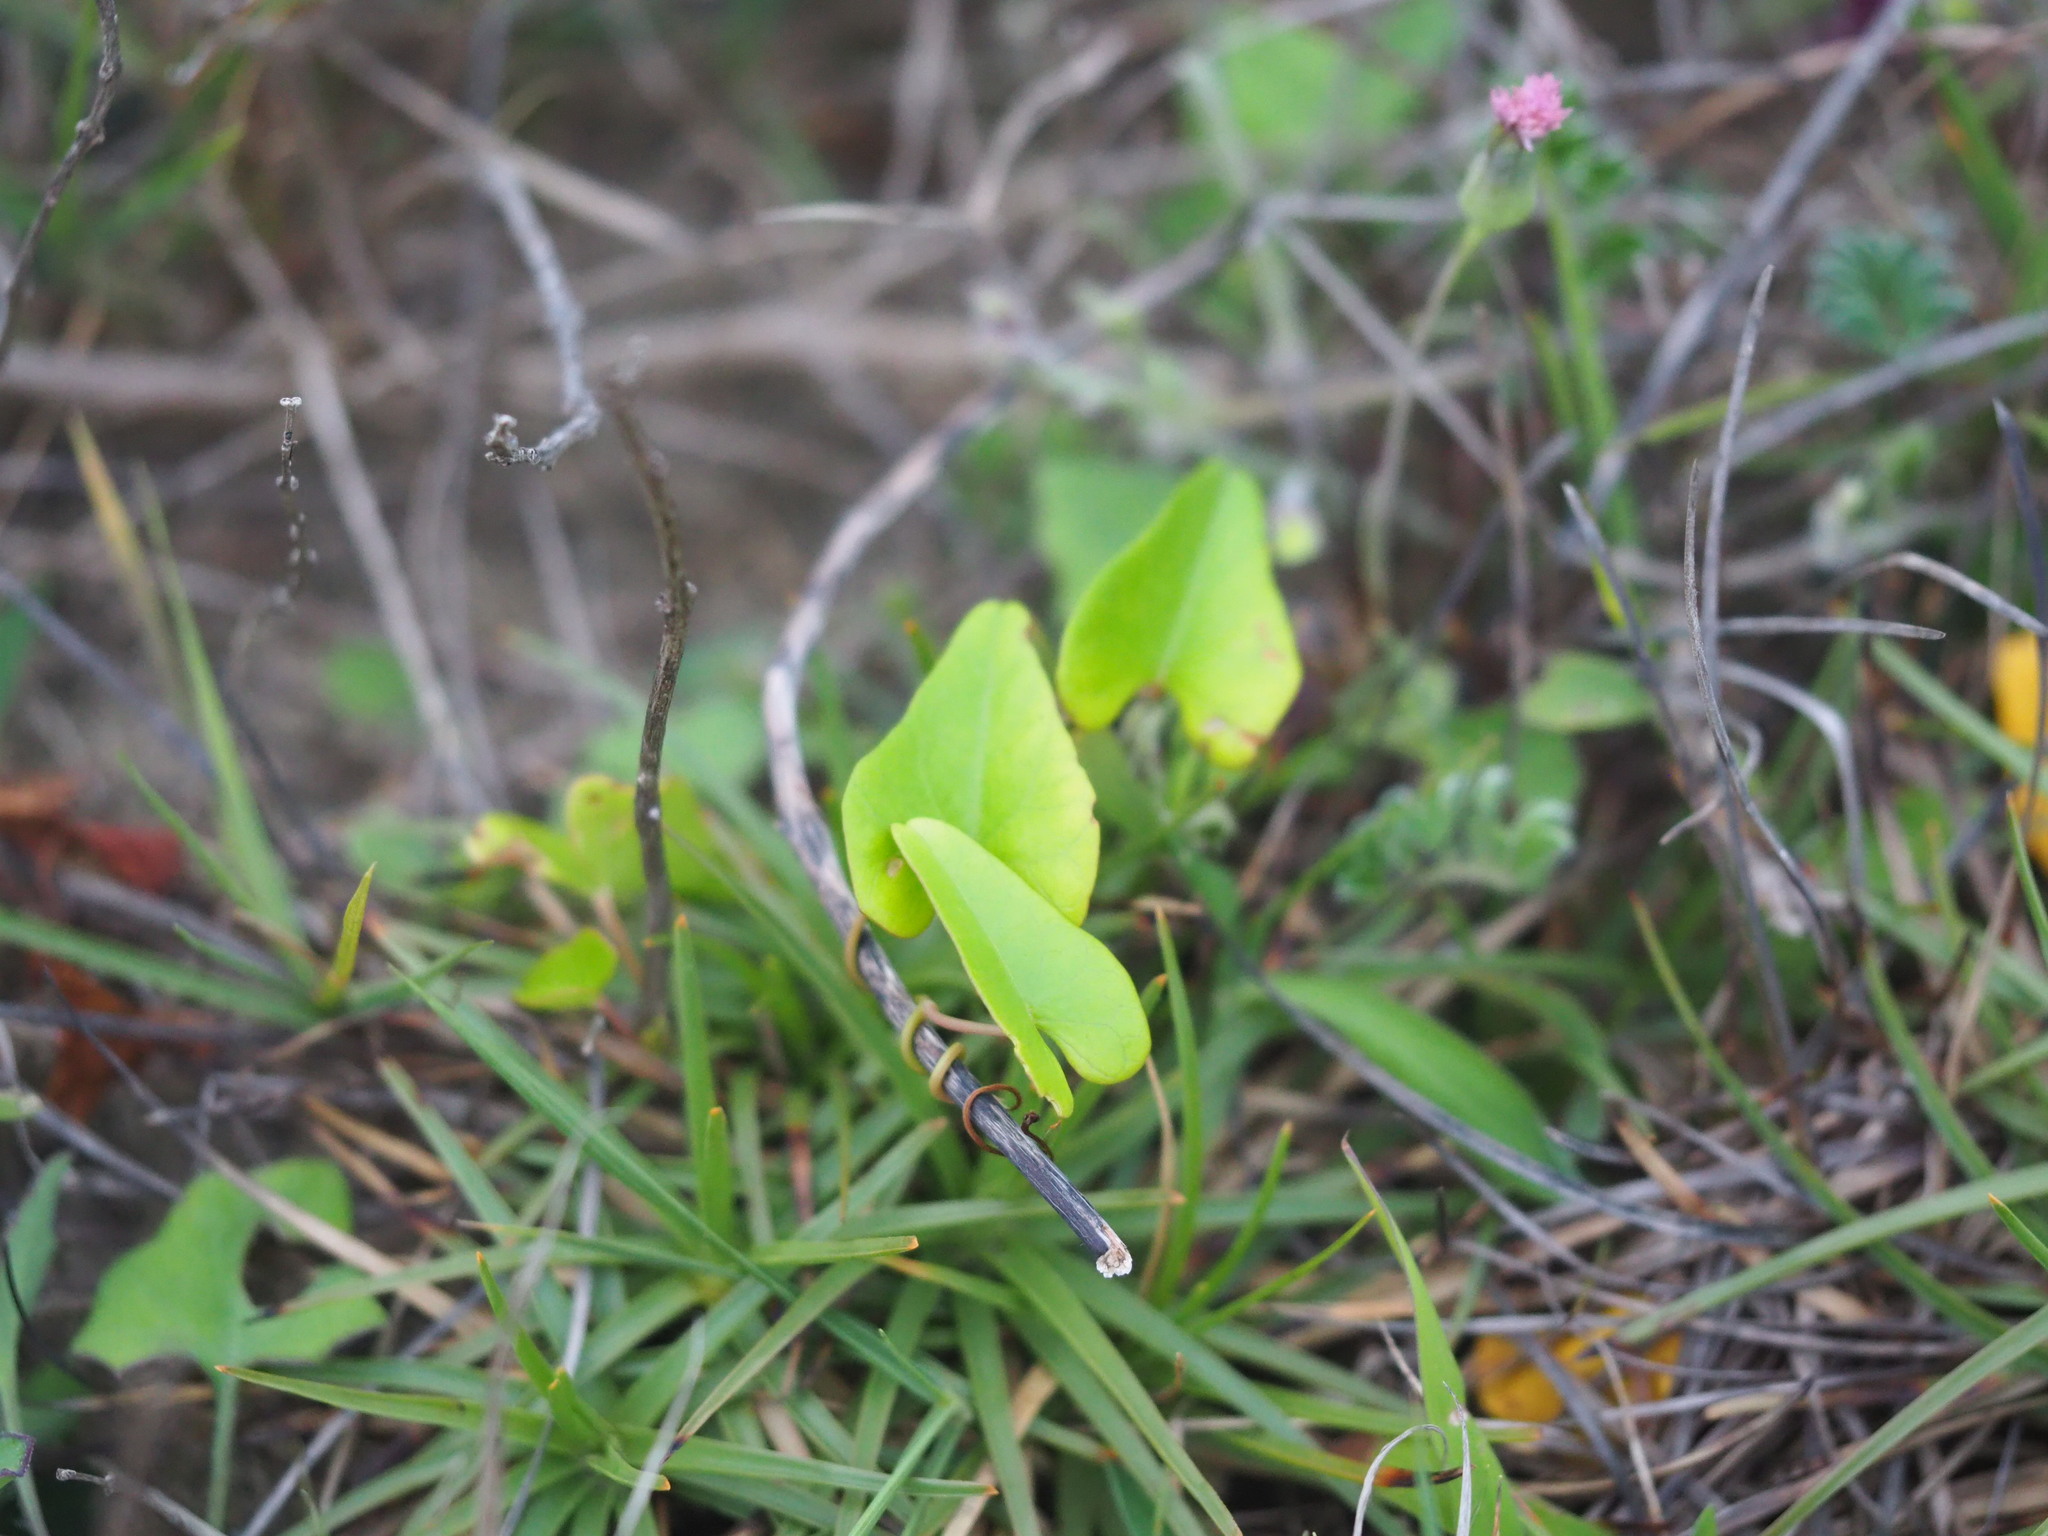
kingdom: Plantae
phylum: Tracheophyta
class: Magnoliopsida
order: Solanales
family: Convolvulaceae
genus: Ipomoea
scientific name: Ipomoea littoralis
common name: Coastal morning glory
